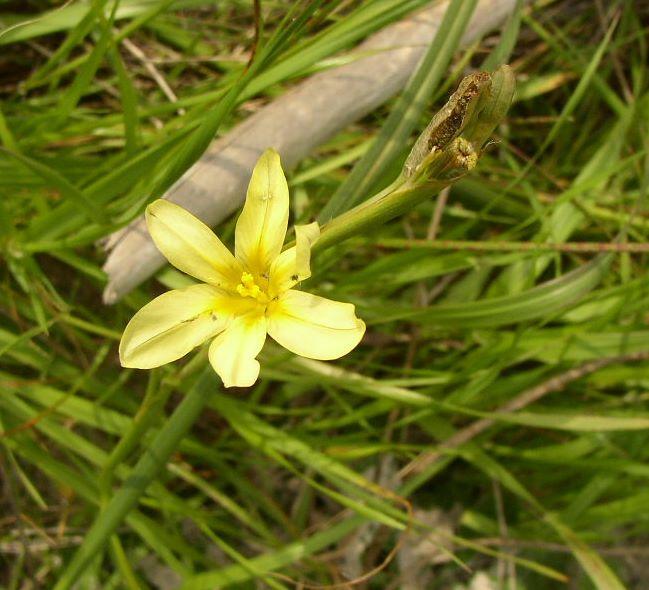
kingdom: Plantae
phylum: Tracheophyta
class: Liliopsida
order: Asparagales
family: Iridaceae
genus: Moraea
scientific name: Moraea collina
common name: Cape-tulip
